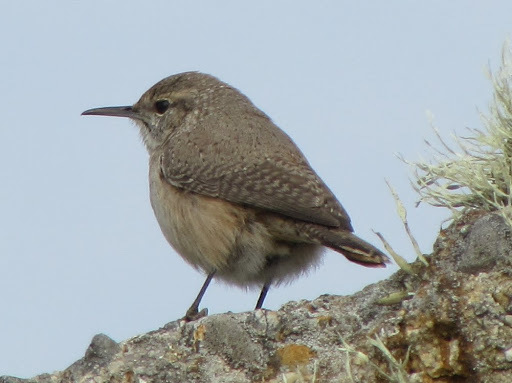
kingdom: Animalia
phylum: Chordata
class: Aves
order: Passeriformes
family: Troglodytidae
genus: Salpinctes
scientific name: Salpinctes obsoletus
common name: Rock wren
